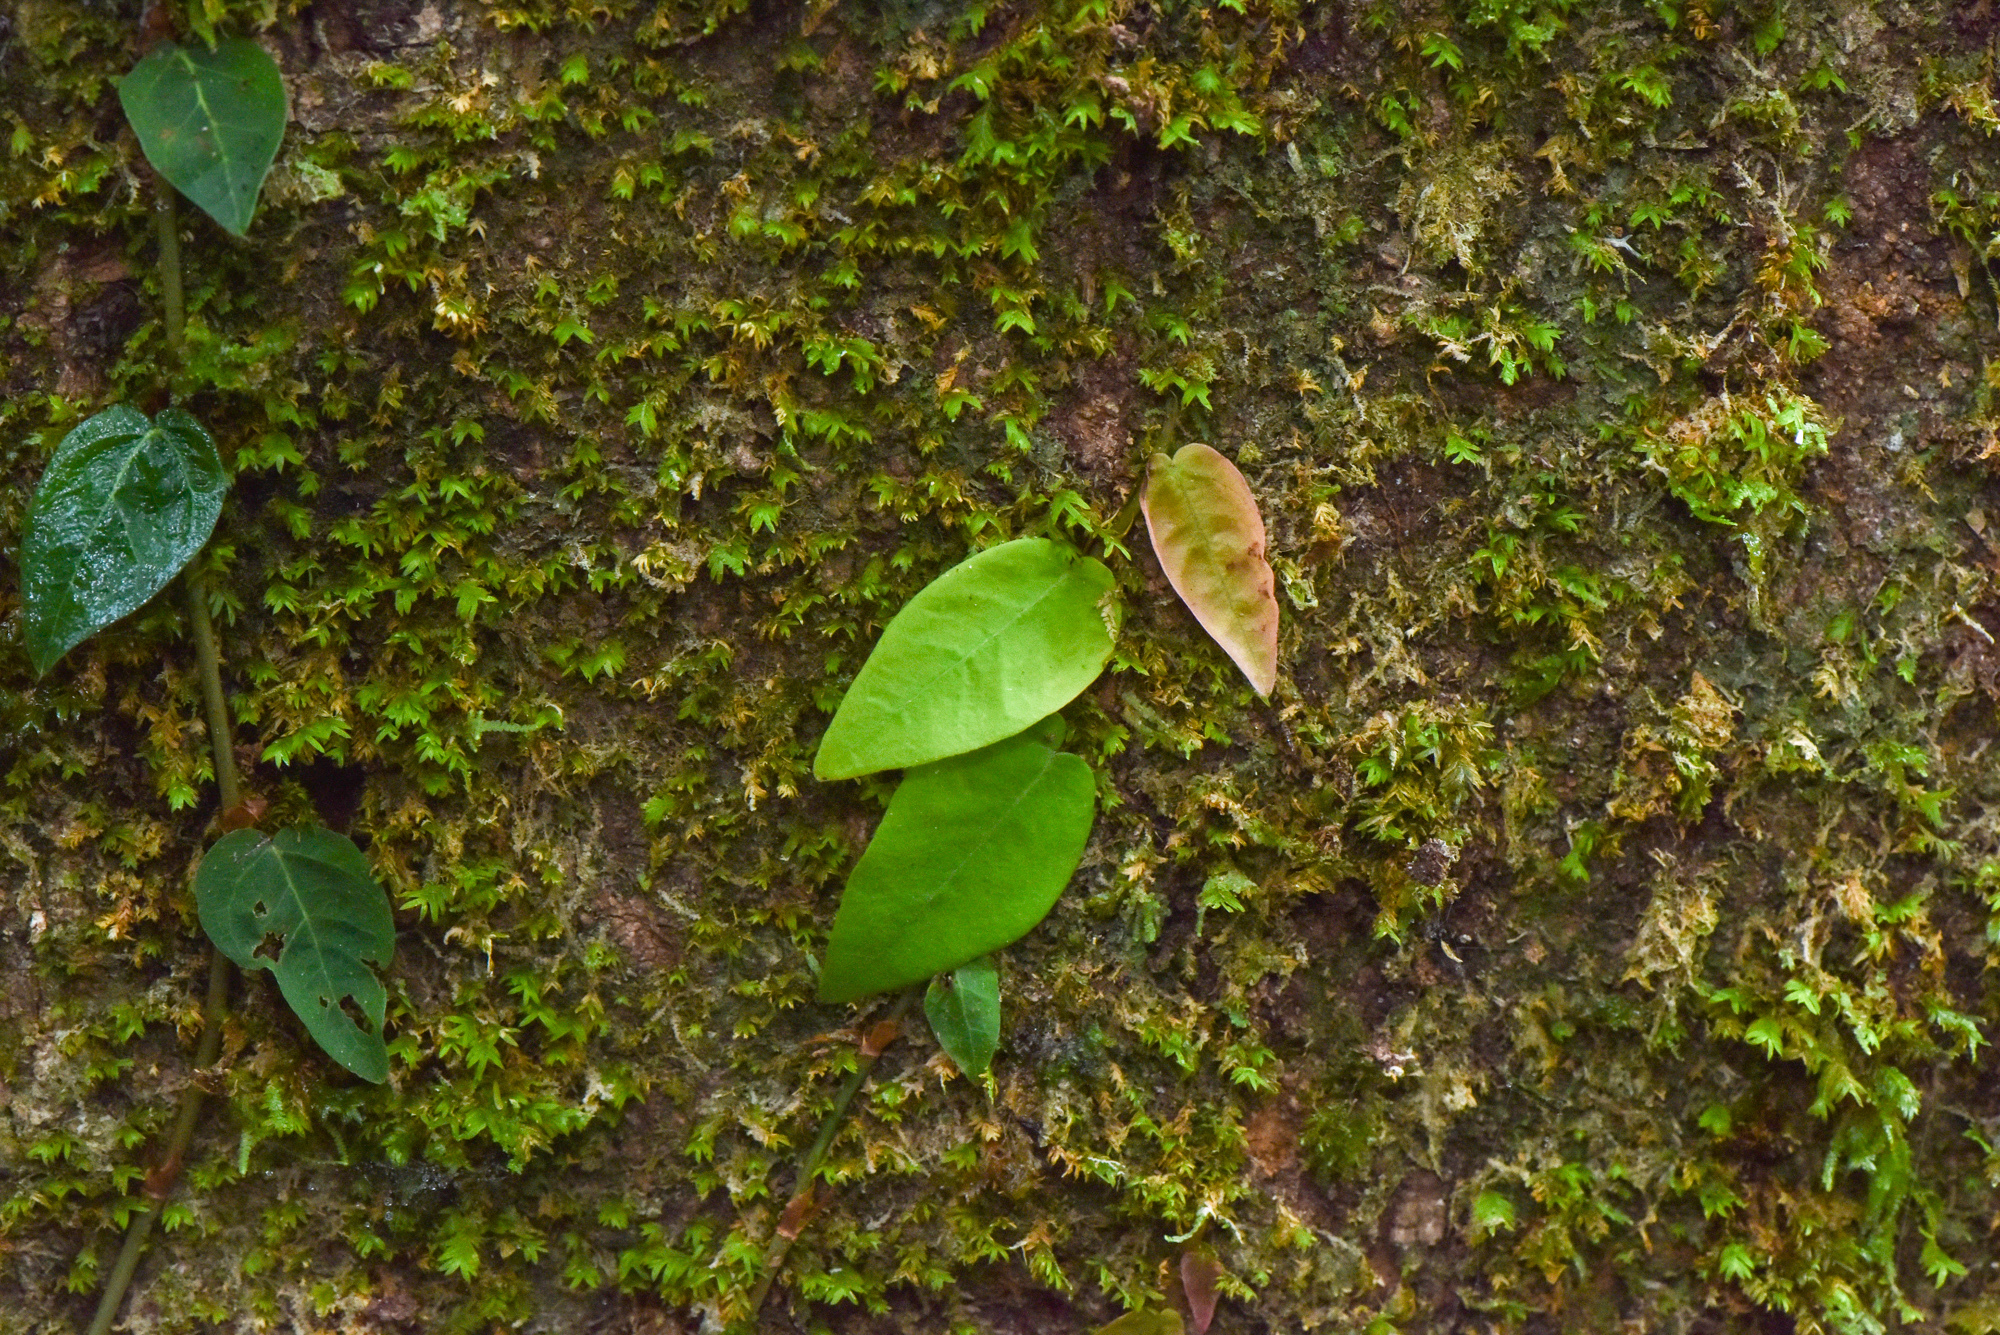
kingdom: Plantae
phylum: Tracheophyta
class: Magnoliopsida
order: Rosales
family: Moraceae
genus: Ficus
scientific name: Ficus sarmentosa
